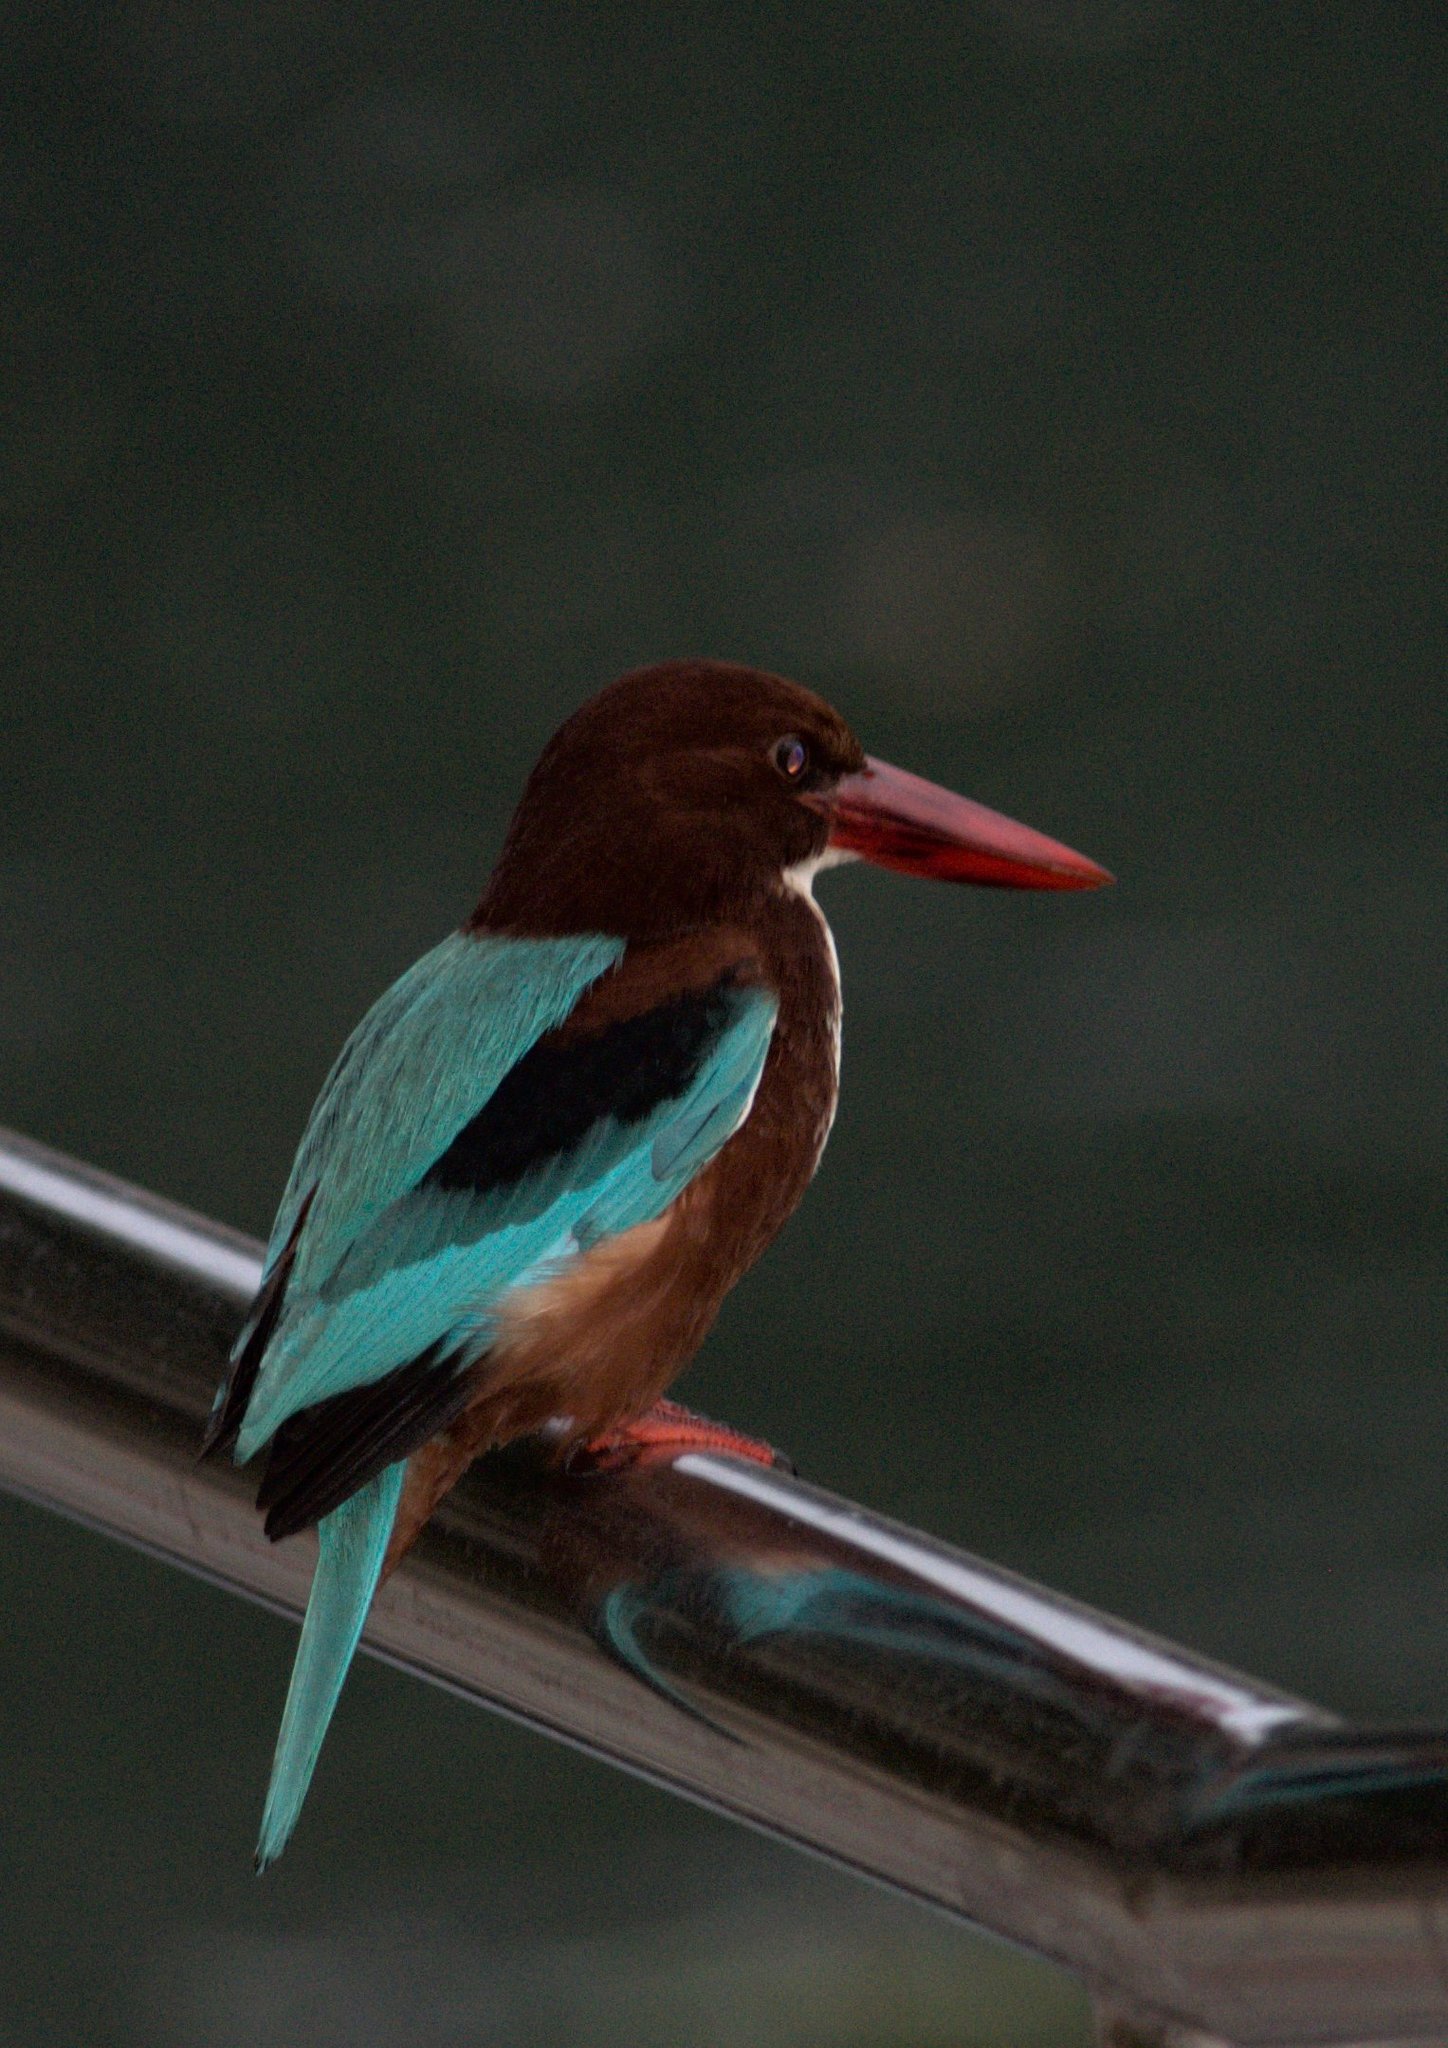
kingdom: Animalia
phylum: Chordata
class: Aves
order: Coraciiformes
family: Alcedinidae
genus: Halcyon
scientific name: Halcyon smyrnensis
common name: White-throated kingfisher
